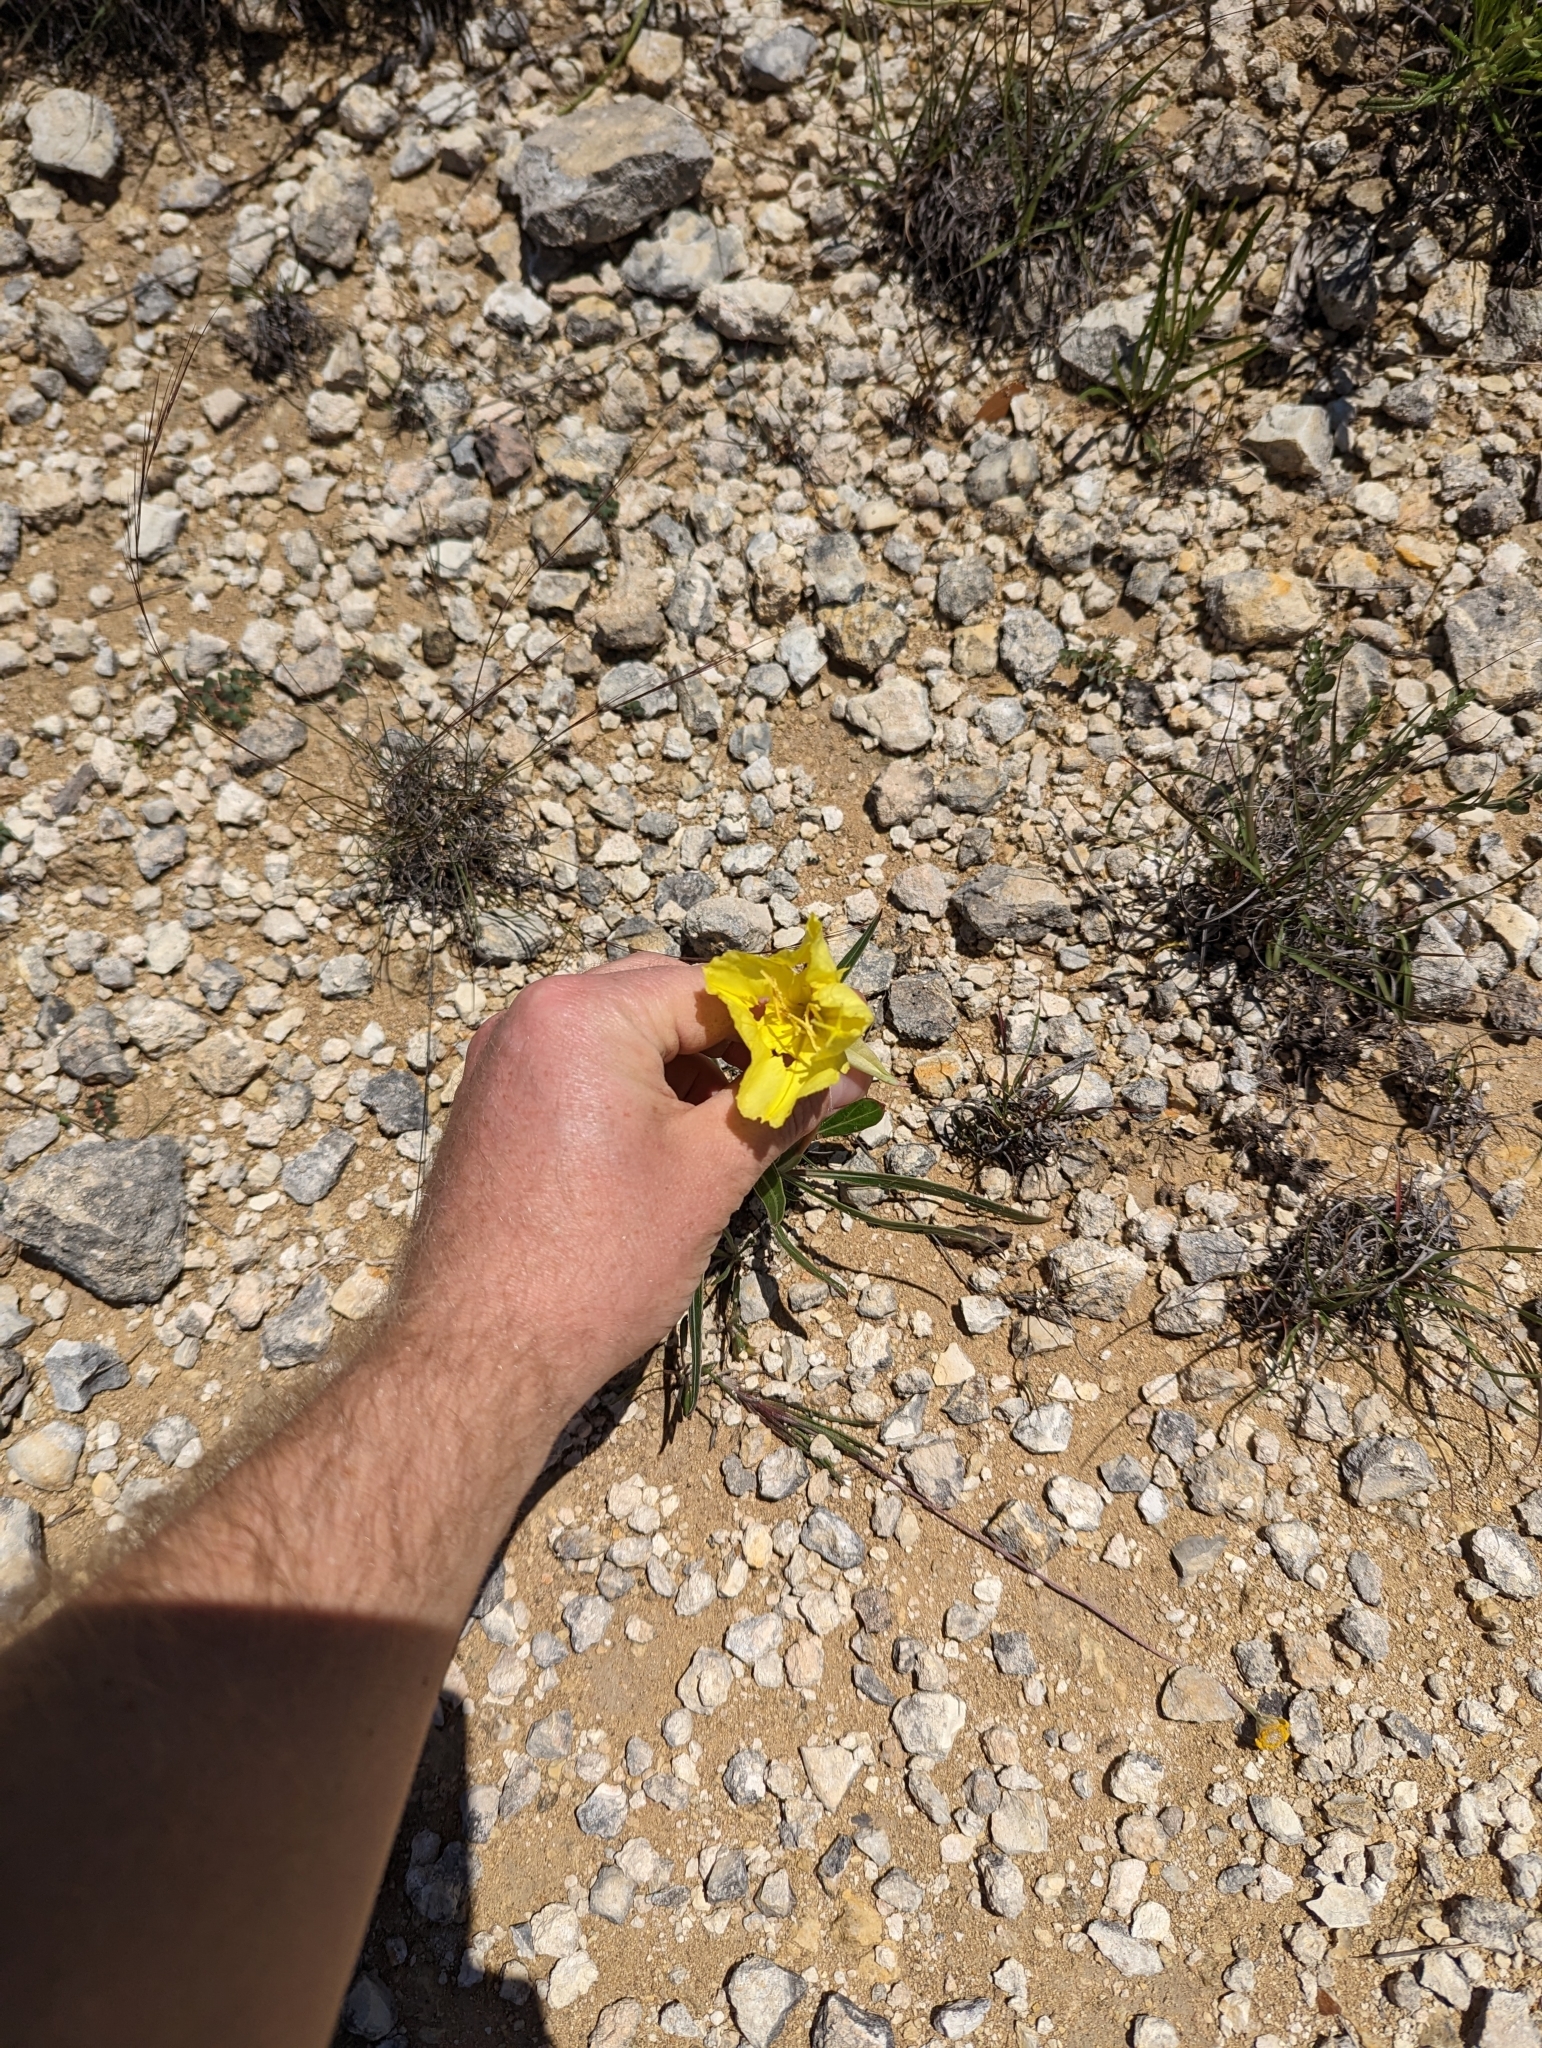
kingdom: Plantae
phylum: Tracheophyta
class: Magnoliopsida
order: Myrtales
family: Onagraceae
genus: Oenothera
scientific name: Oenothera macrocarpa
